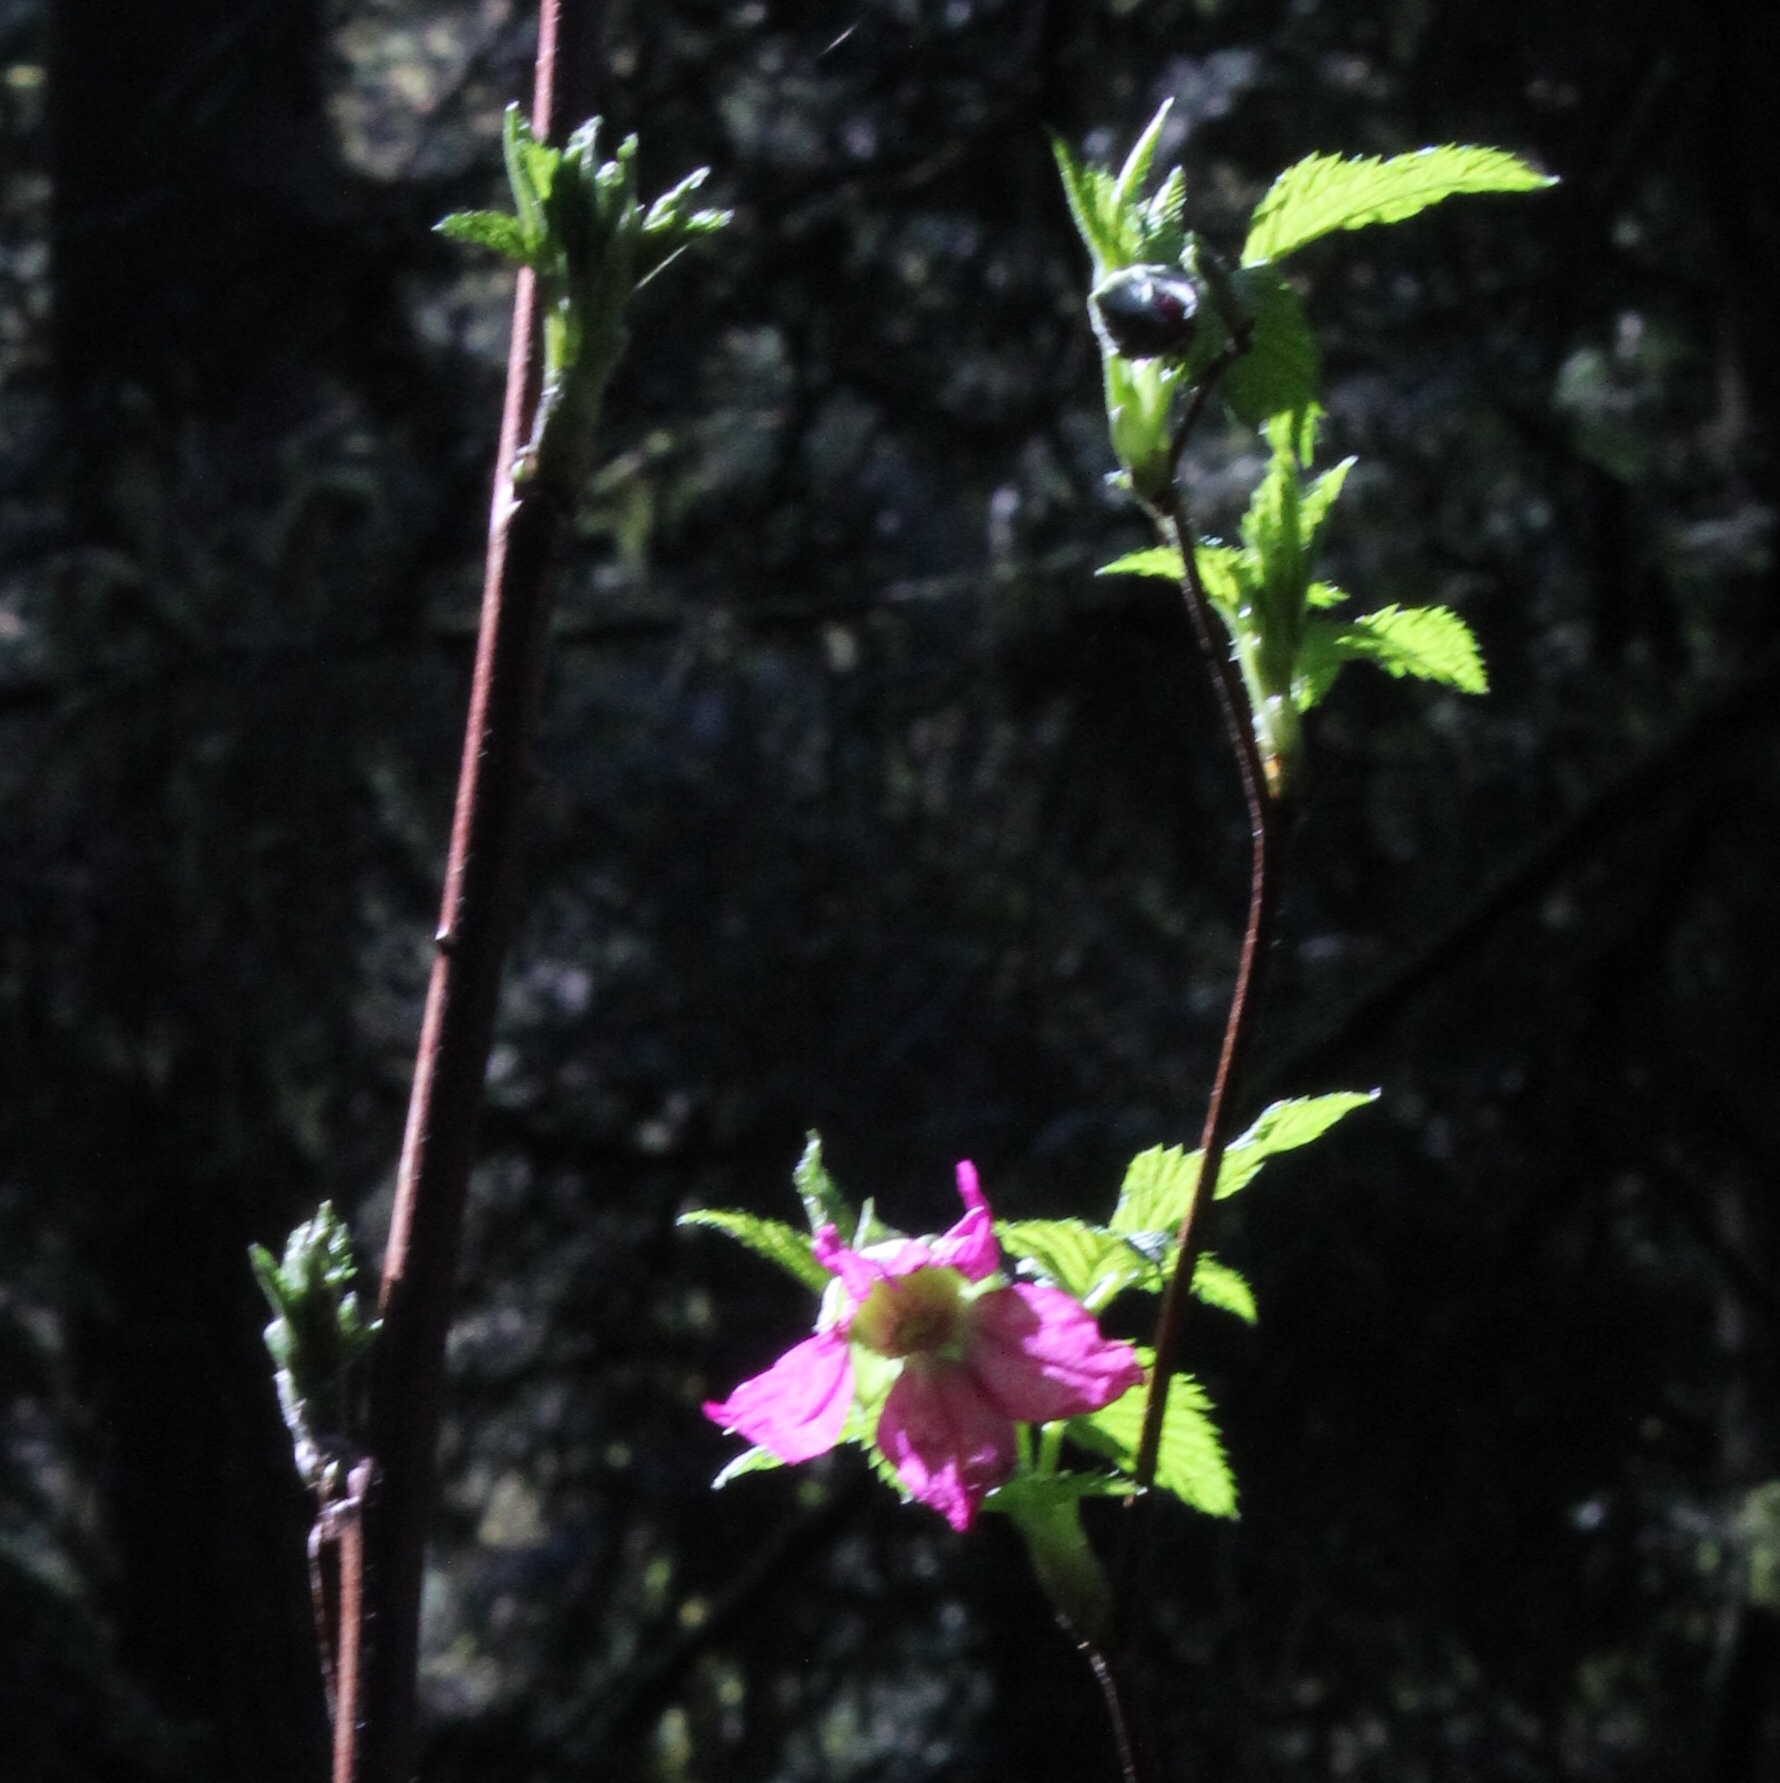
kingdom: Plantae
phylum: Tracheophyta
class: Magnoliopsida
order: Rosales
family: Rosaceae
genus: Rubus
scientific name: Rubus spectabilis
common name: Salmonberry
